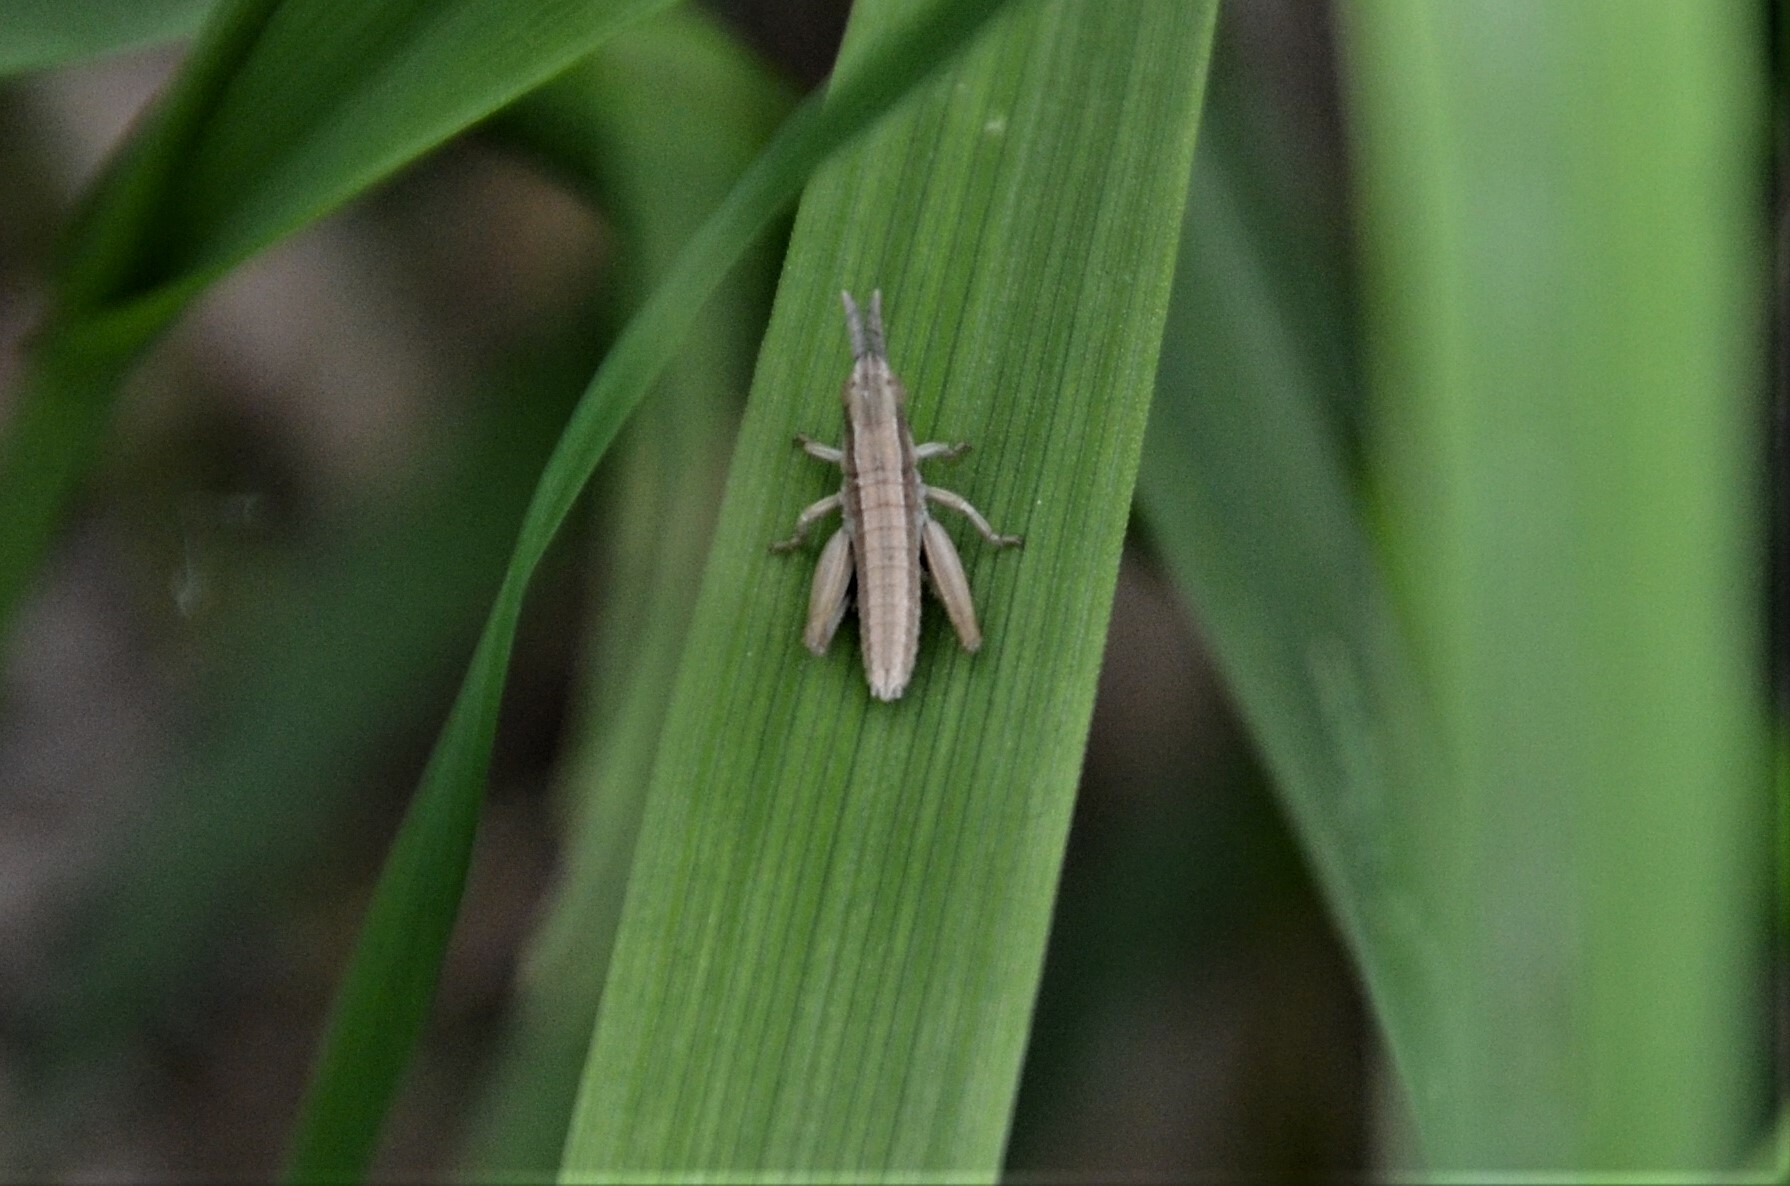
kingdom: Animalia
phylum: Arthropoda
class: Insecta
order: Orthoptera
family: Acrididae
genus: Euthystira
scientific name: Euthystira brachyptera
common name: Small gold grasshopper
